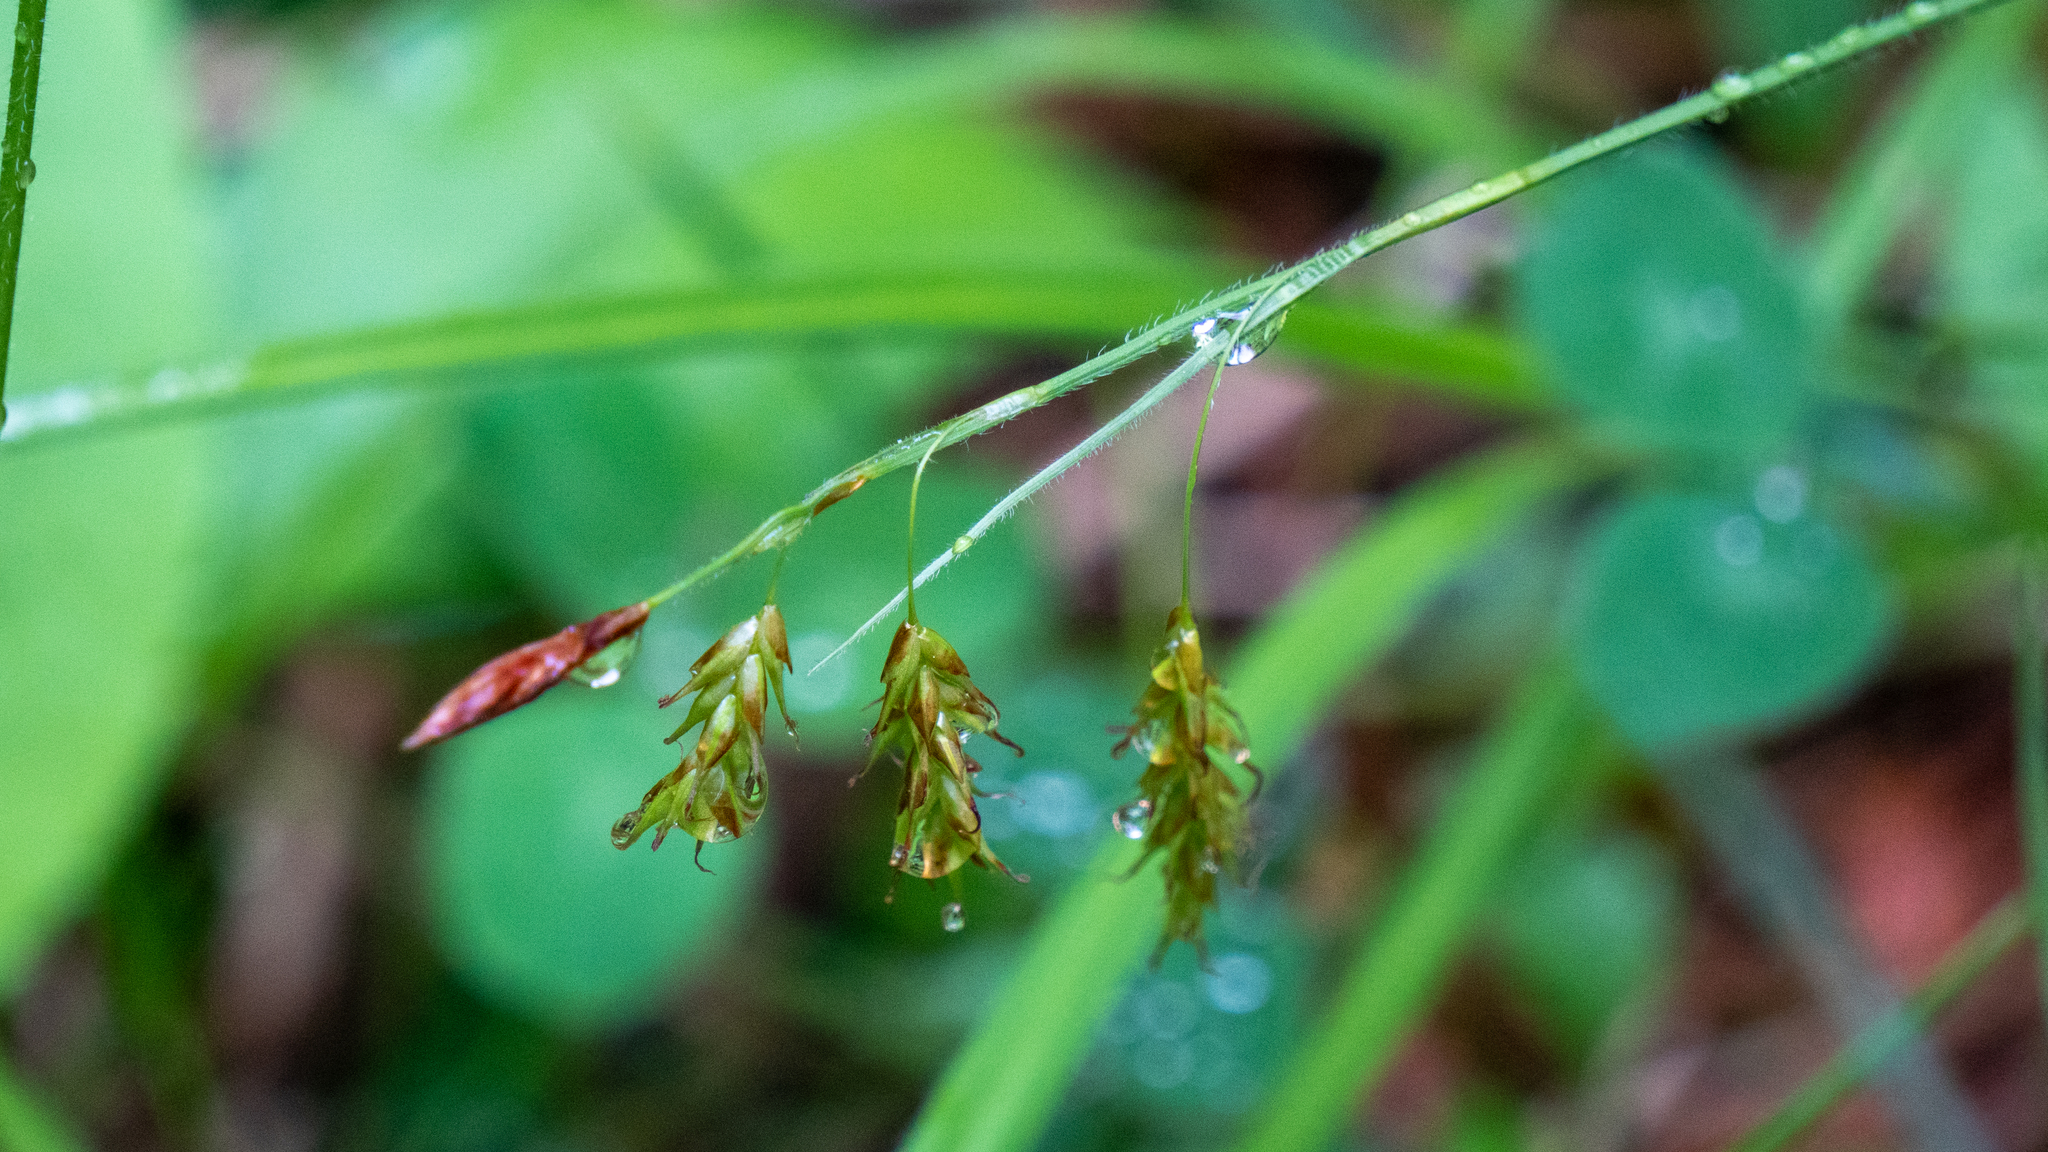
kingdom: Plantae
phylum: Tracheophyta
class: Liliopsida
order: Poales
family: Cyperaceae
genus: Carex
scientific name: Carex castanea
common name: Chestnut sedge
